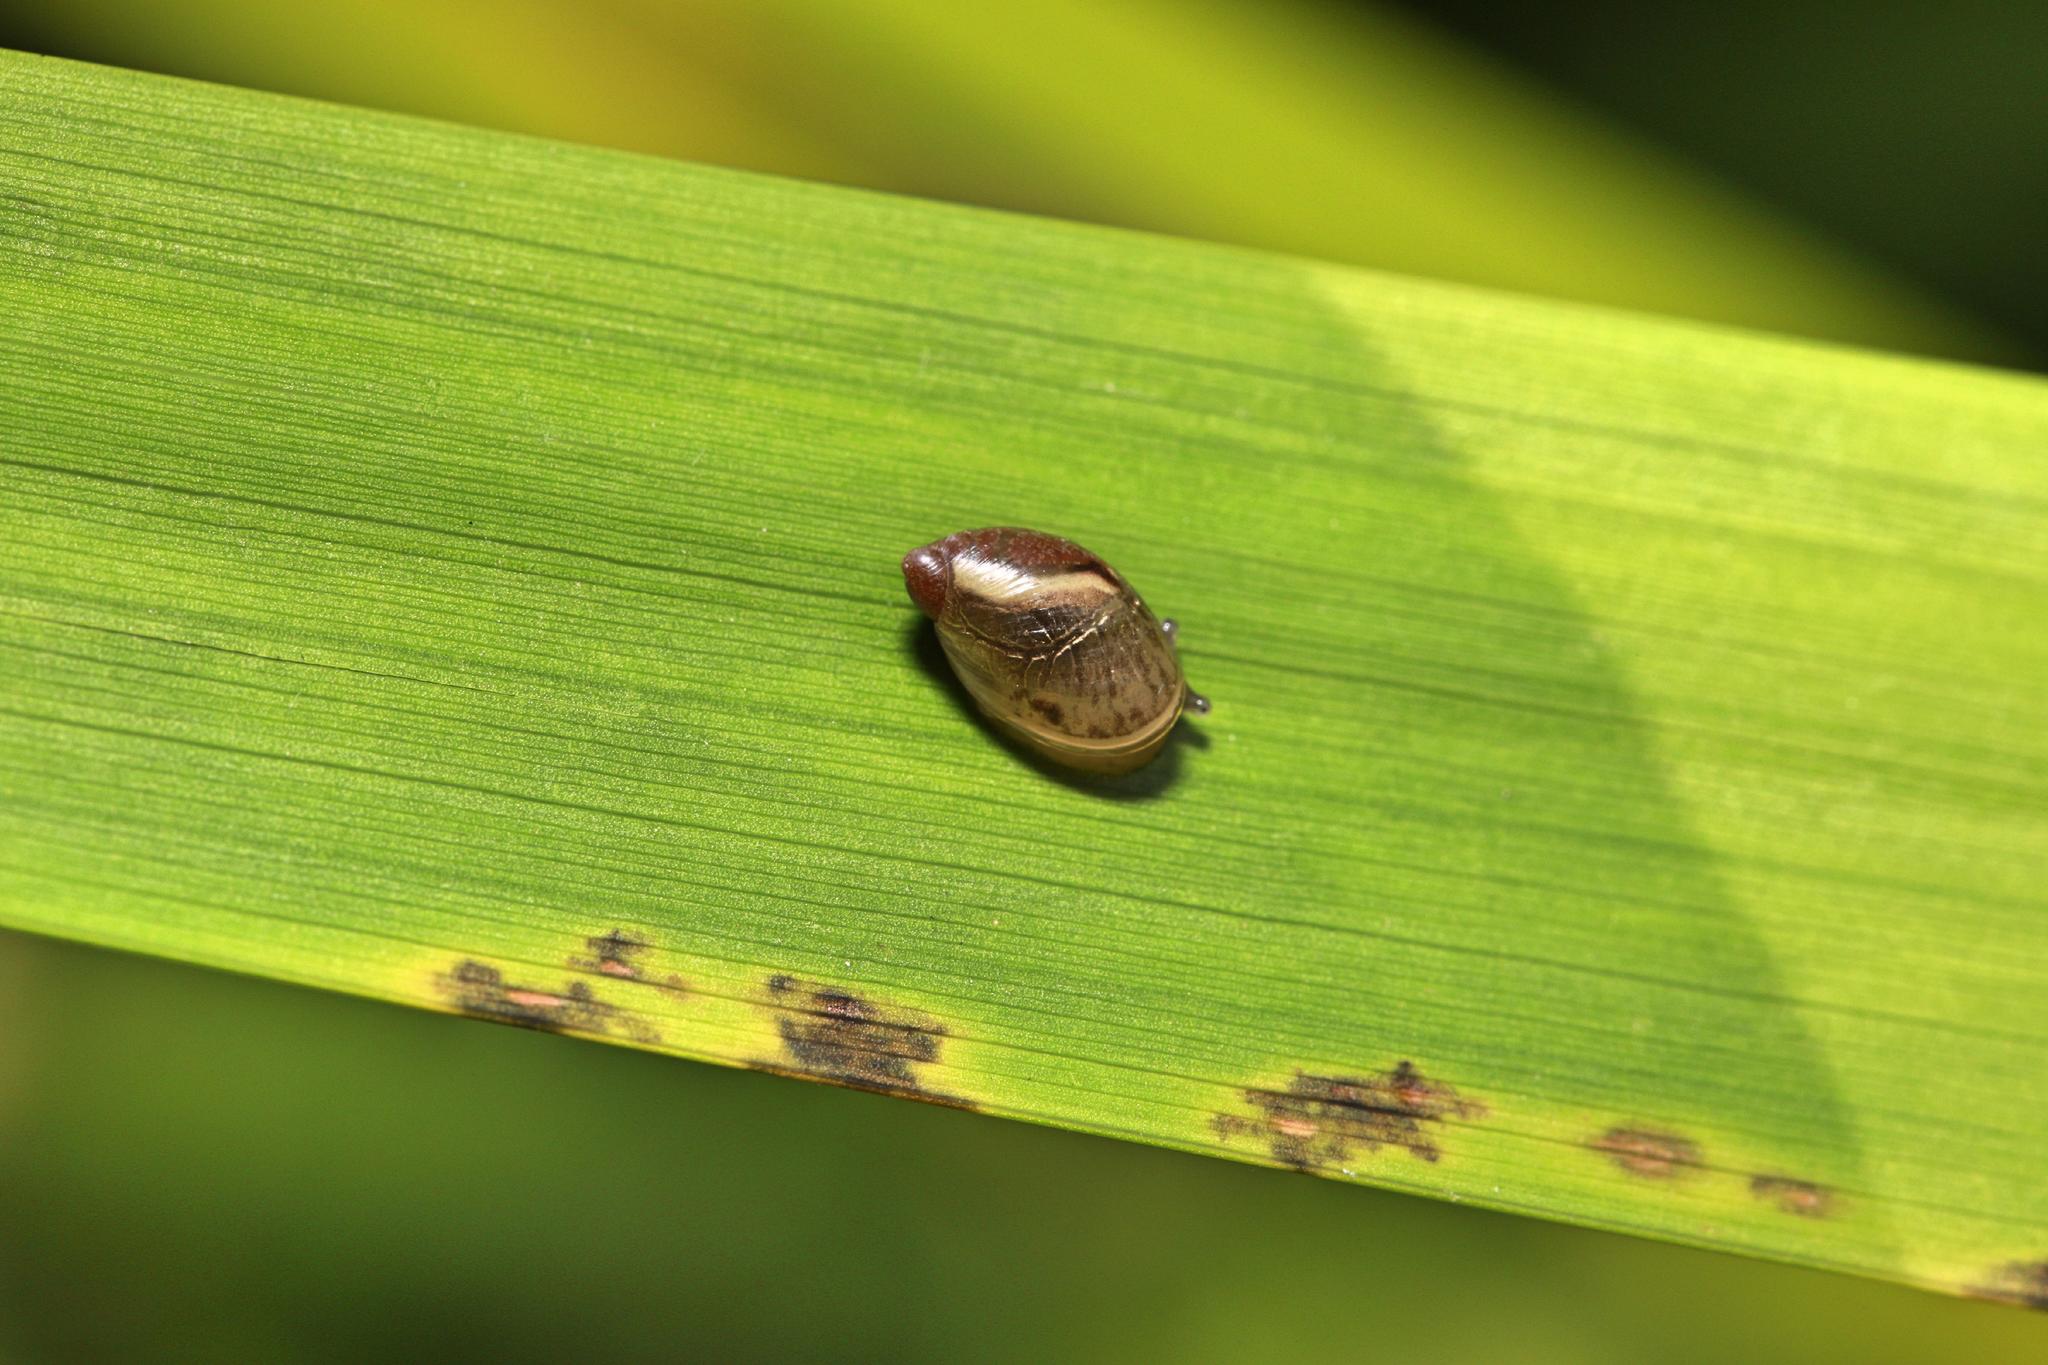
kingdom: Animalia
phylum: Mollusca
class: Gastropoda
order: Stylommatophora
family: Succineidae
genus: Succinea
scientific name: Succinea putris
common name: European ambersnail
